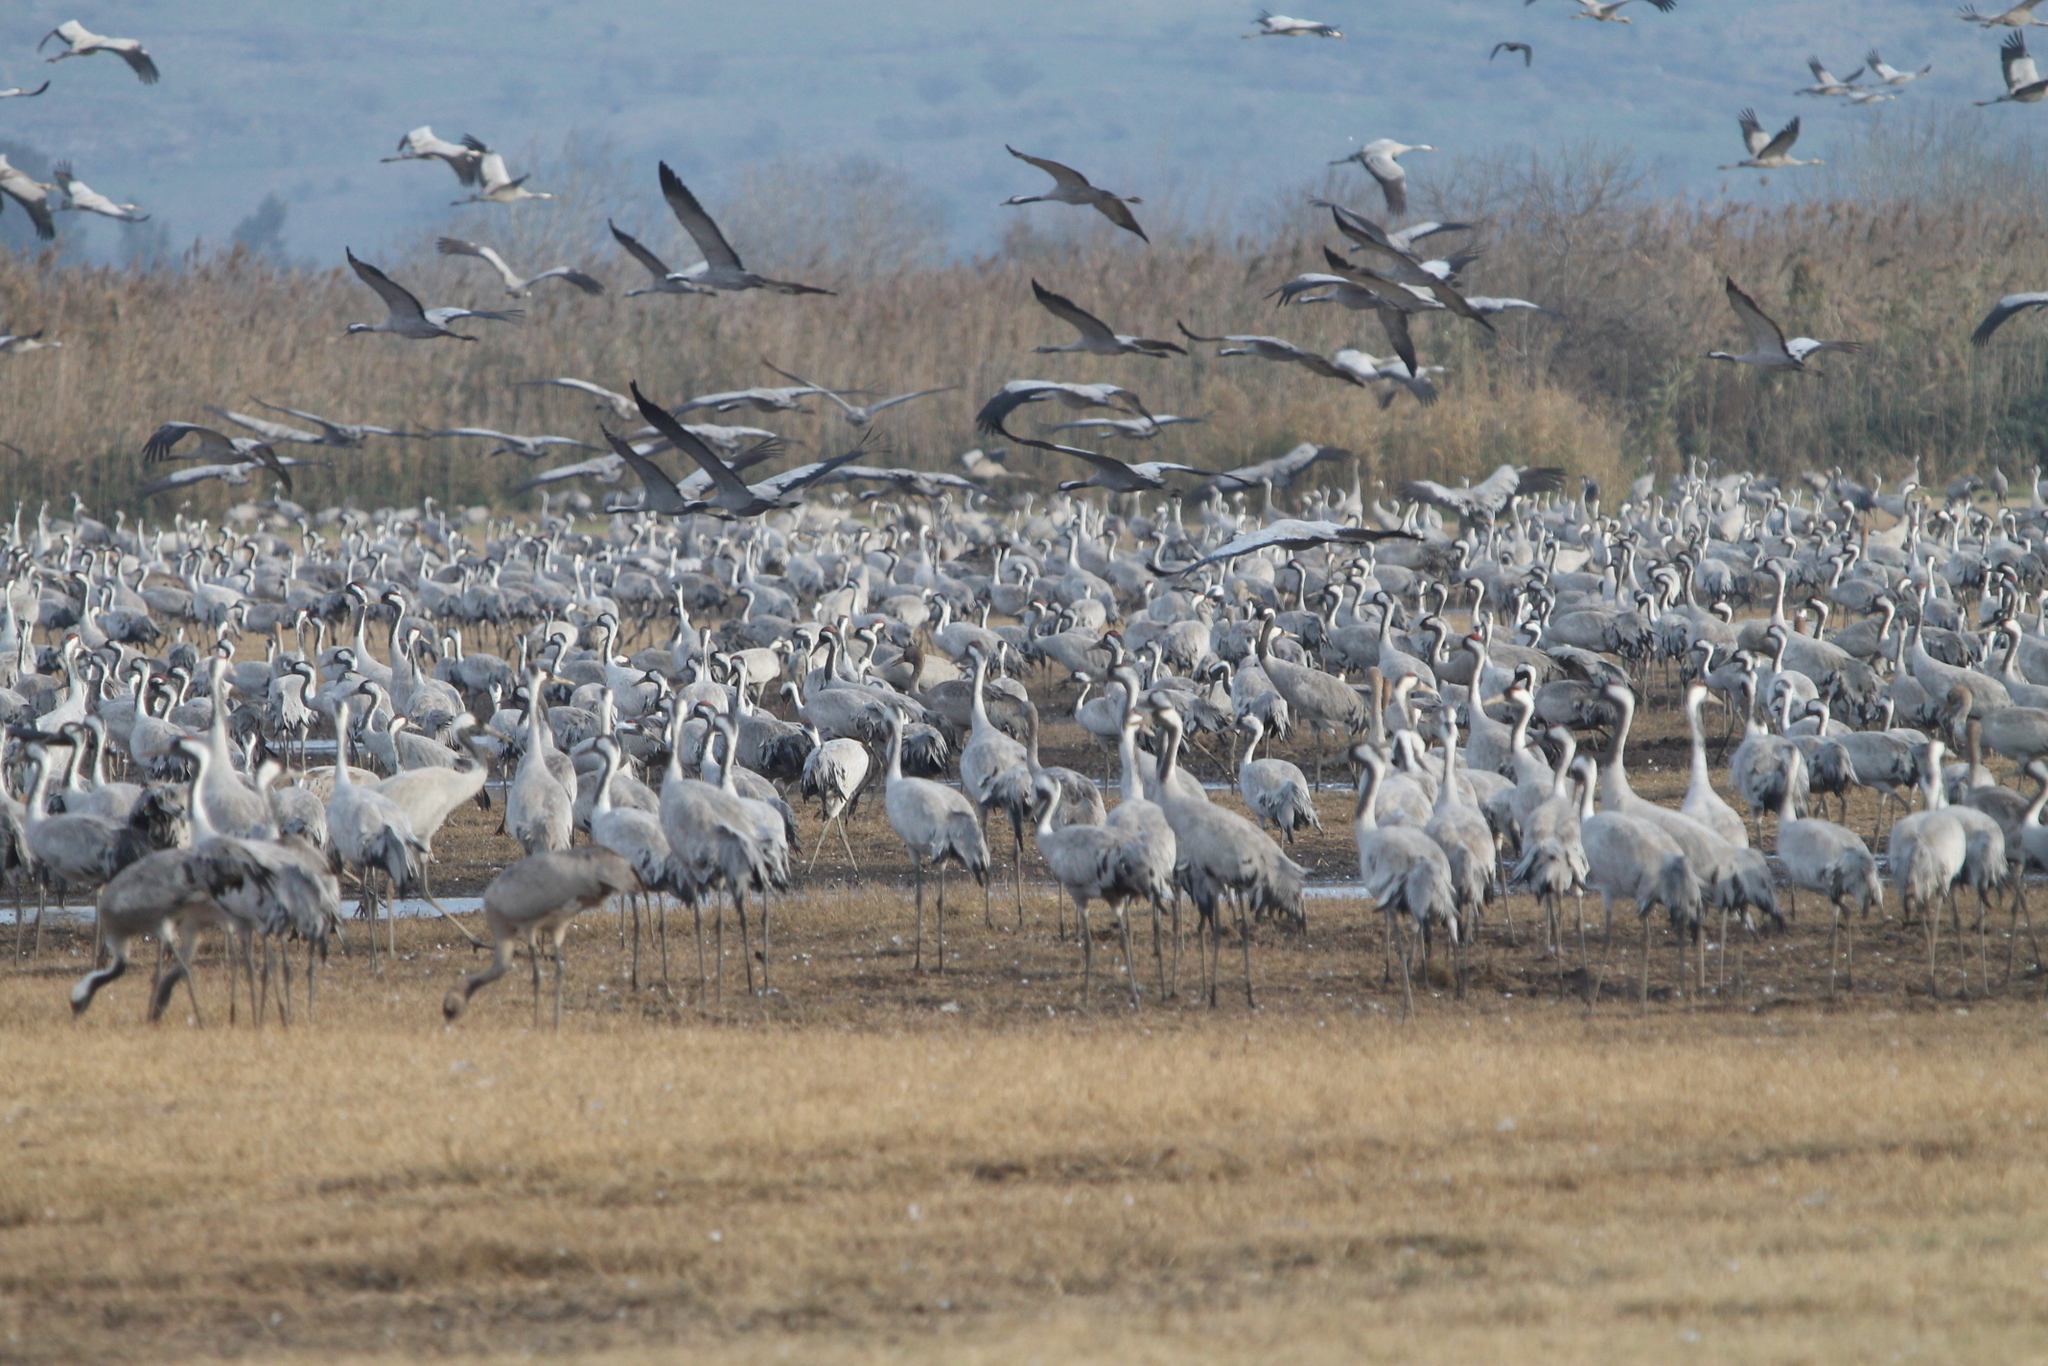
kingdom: Animalia
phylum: Chordata
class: Aves
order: Gruiformes
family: Gruidae
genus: Grus
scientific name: Grus grus
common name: Common crane
